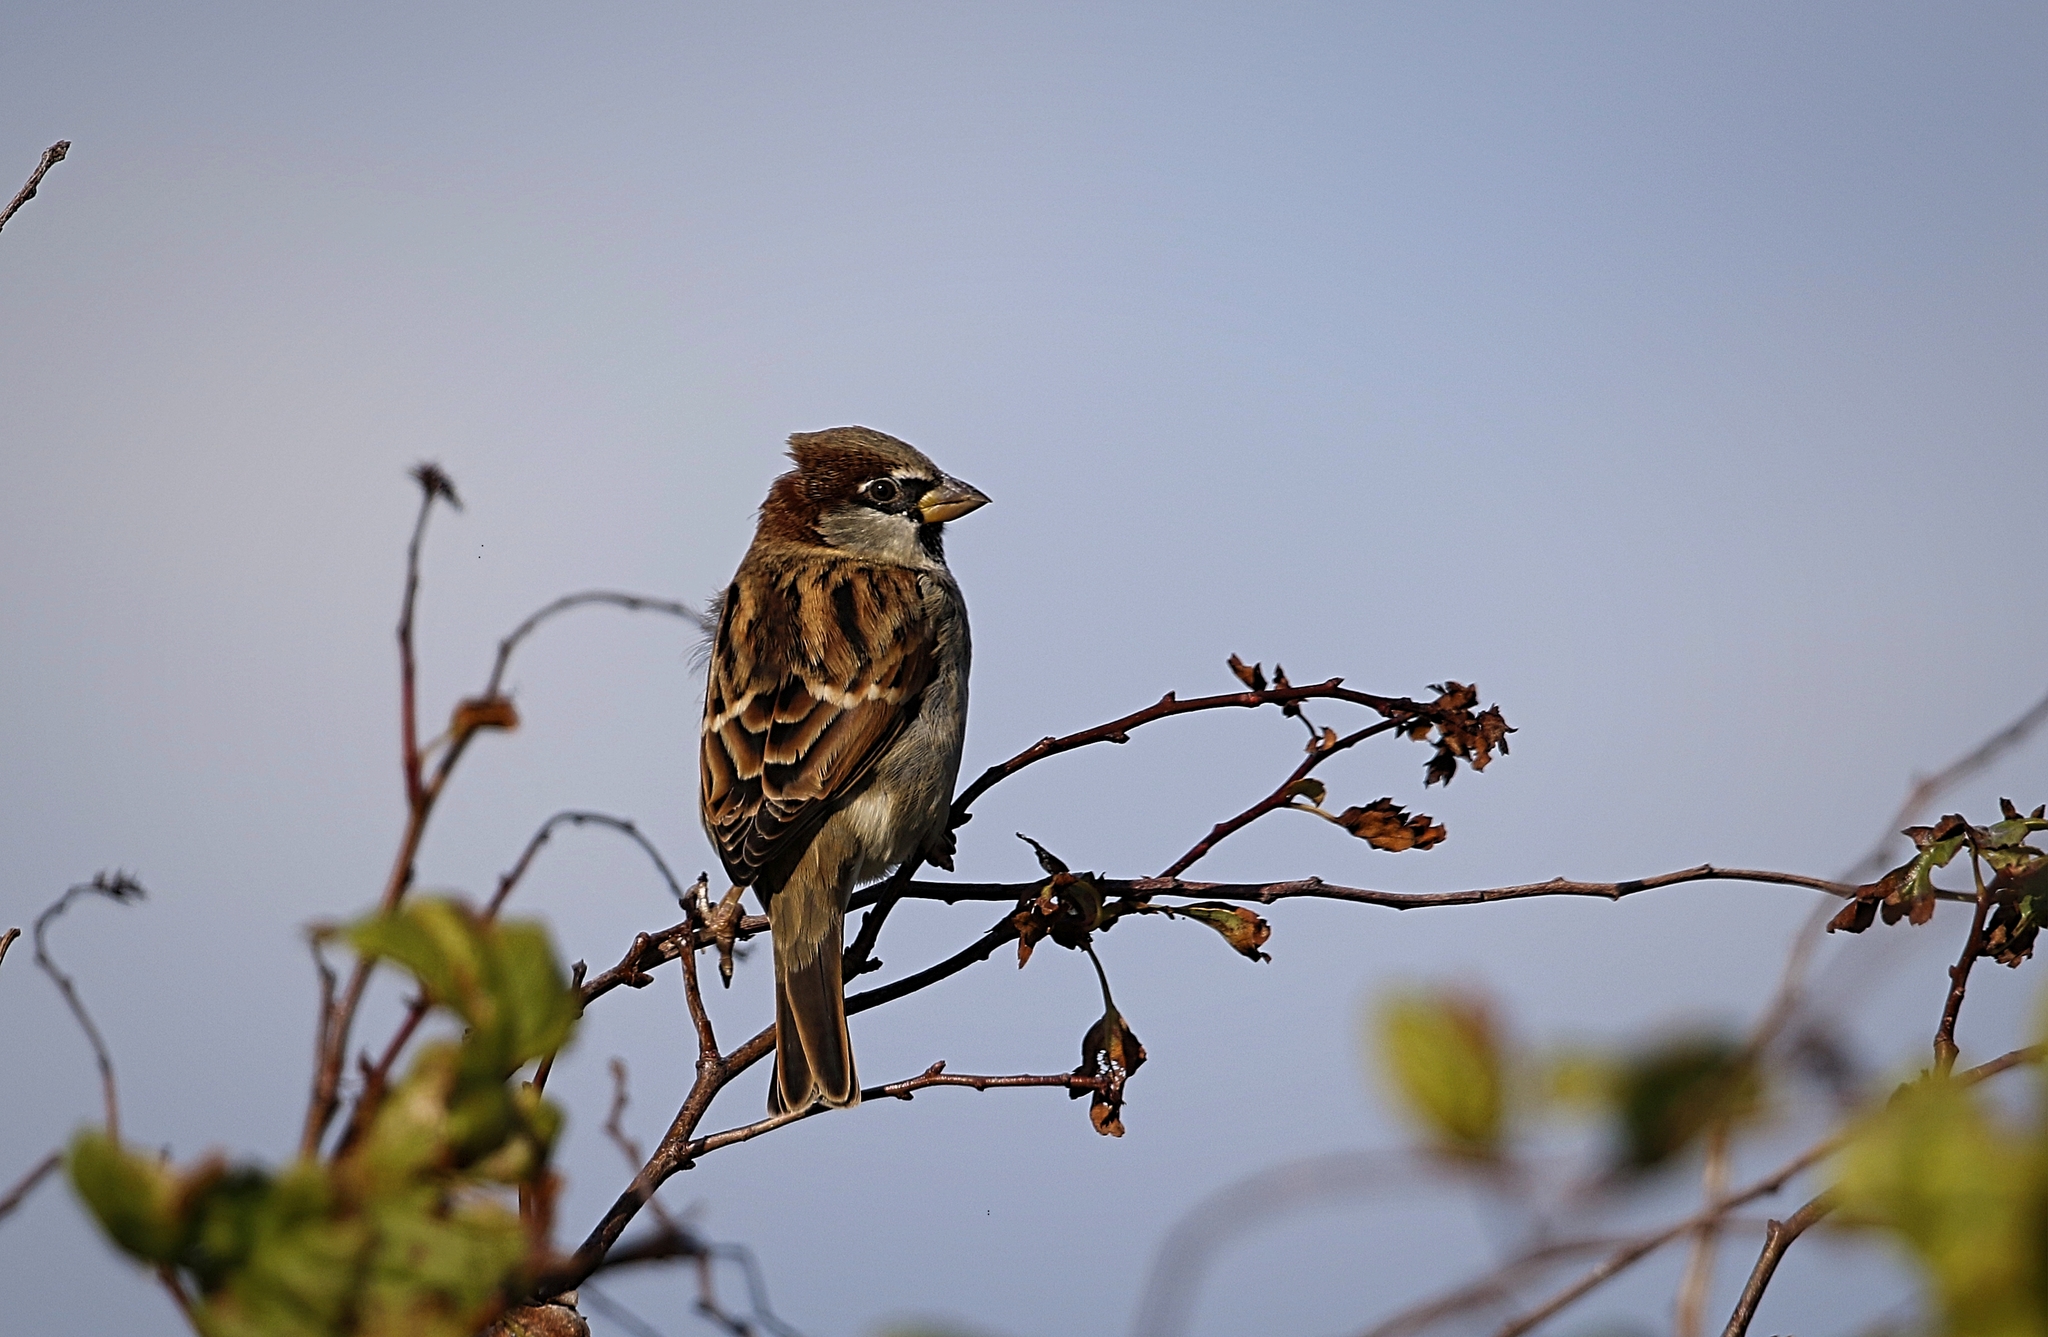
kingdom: Animalia
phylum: Chordata
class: Aves
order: Passeriformes
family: Passeridae
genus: Passer
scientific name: Passer domesticus
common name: House sparrow
